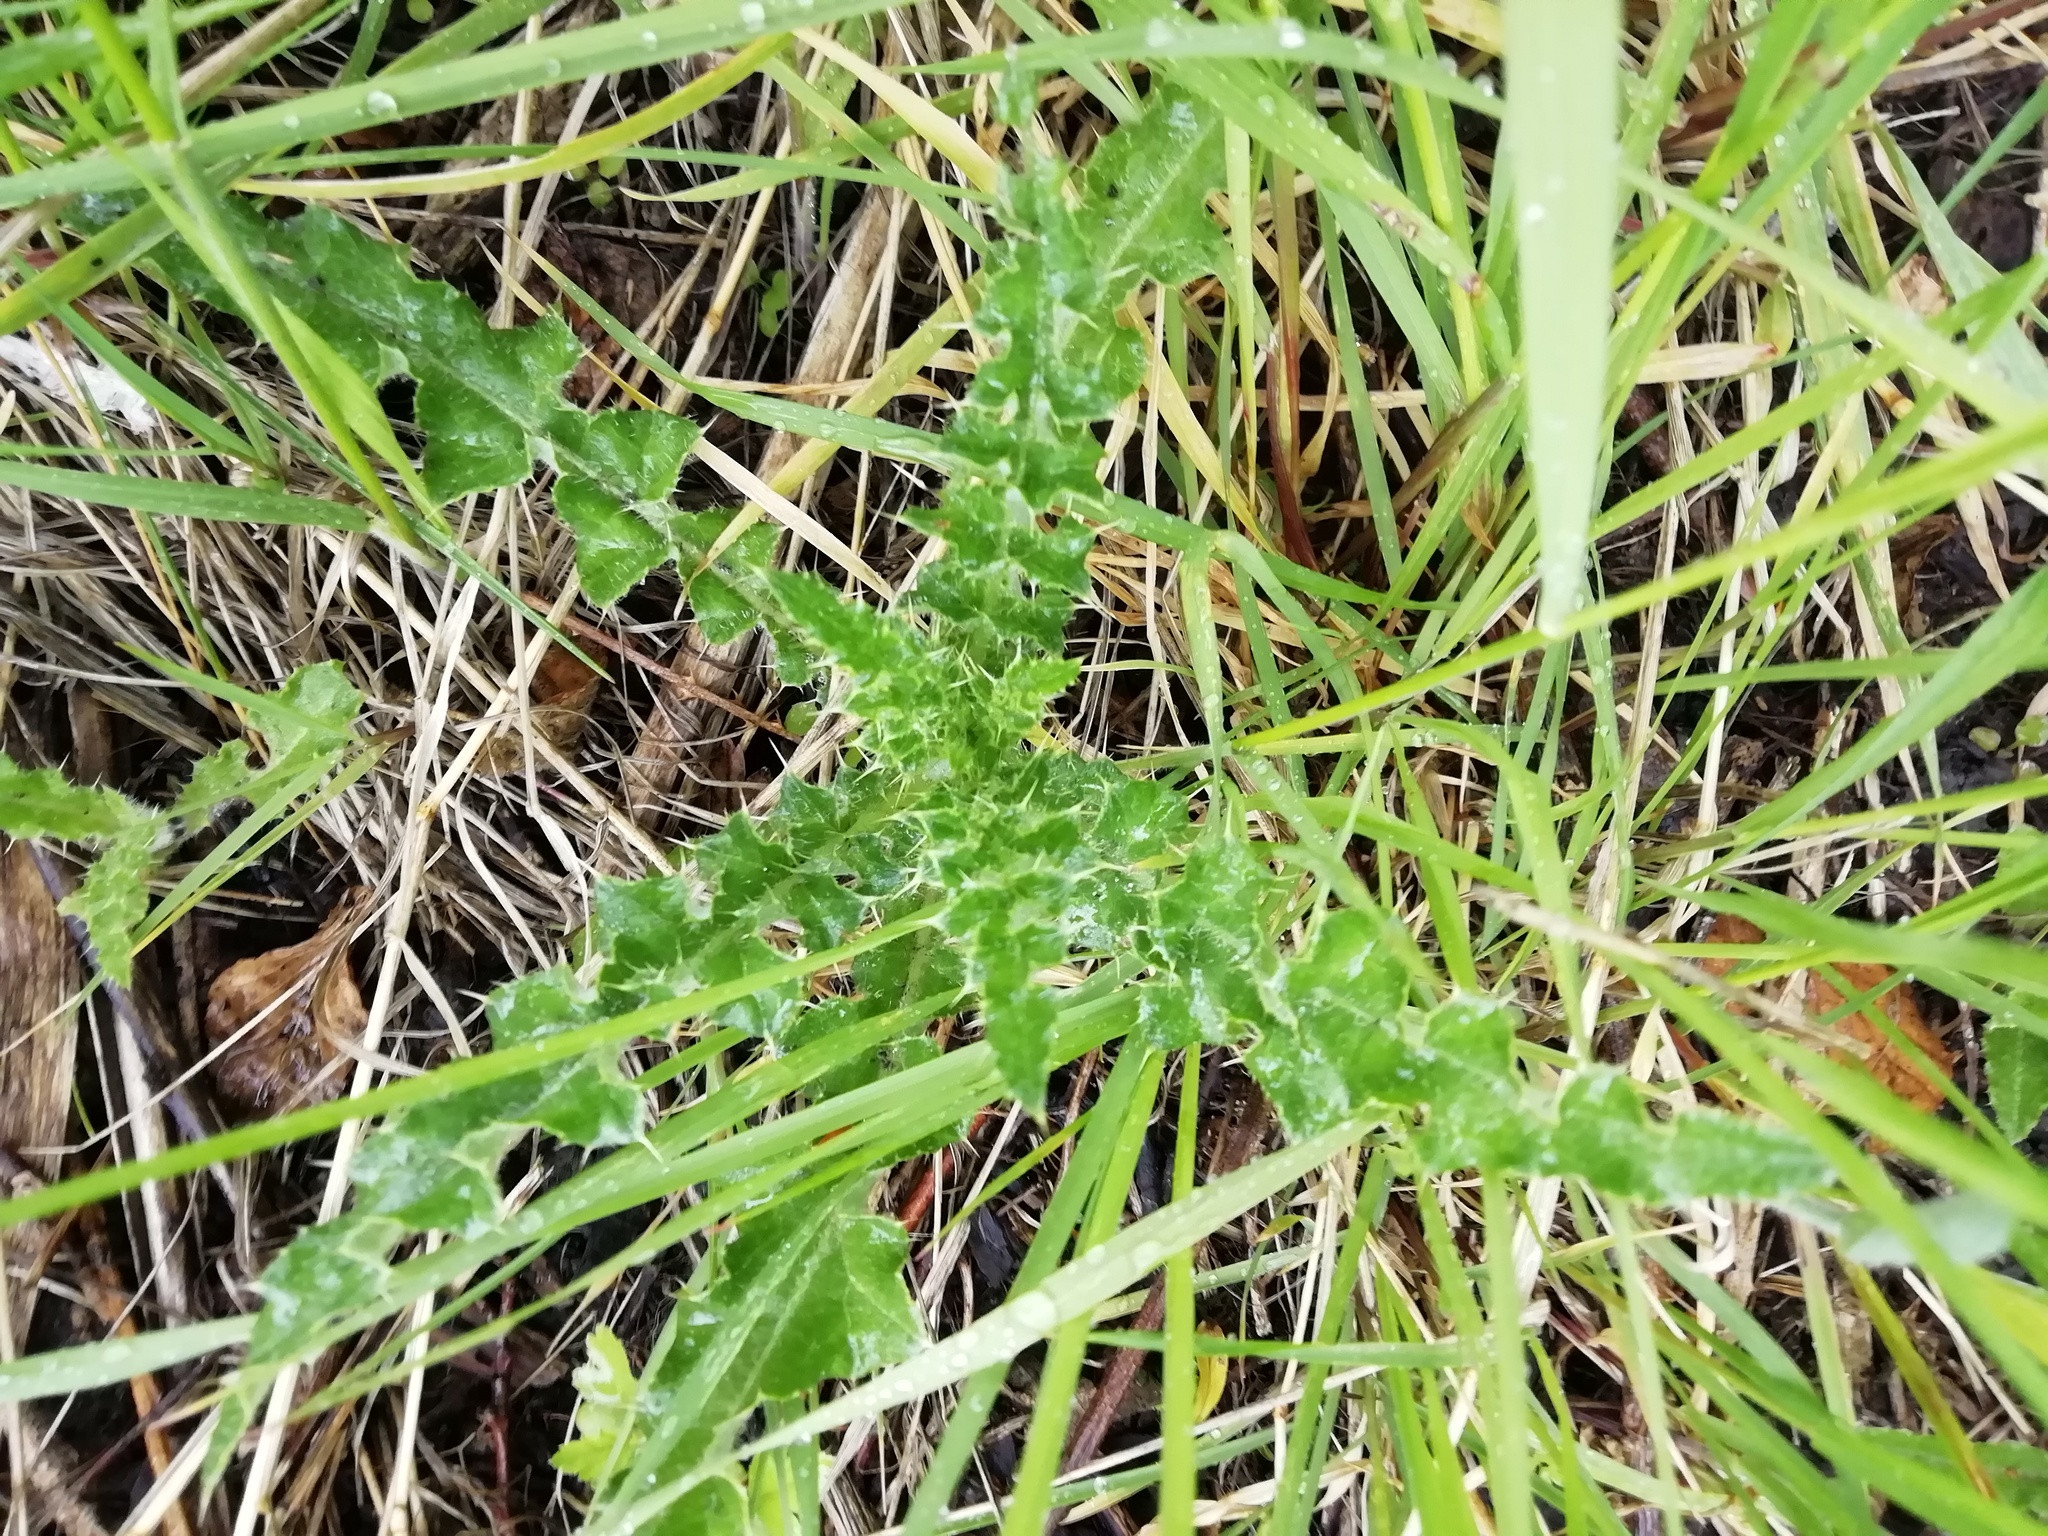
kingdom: Plantae
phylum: Tracheophyta
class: Magnoliopsida
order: Asterales
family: Asteraceae
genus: Cirsium
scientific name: Cirsium arvense
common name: Creeping thistle
